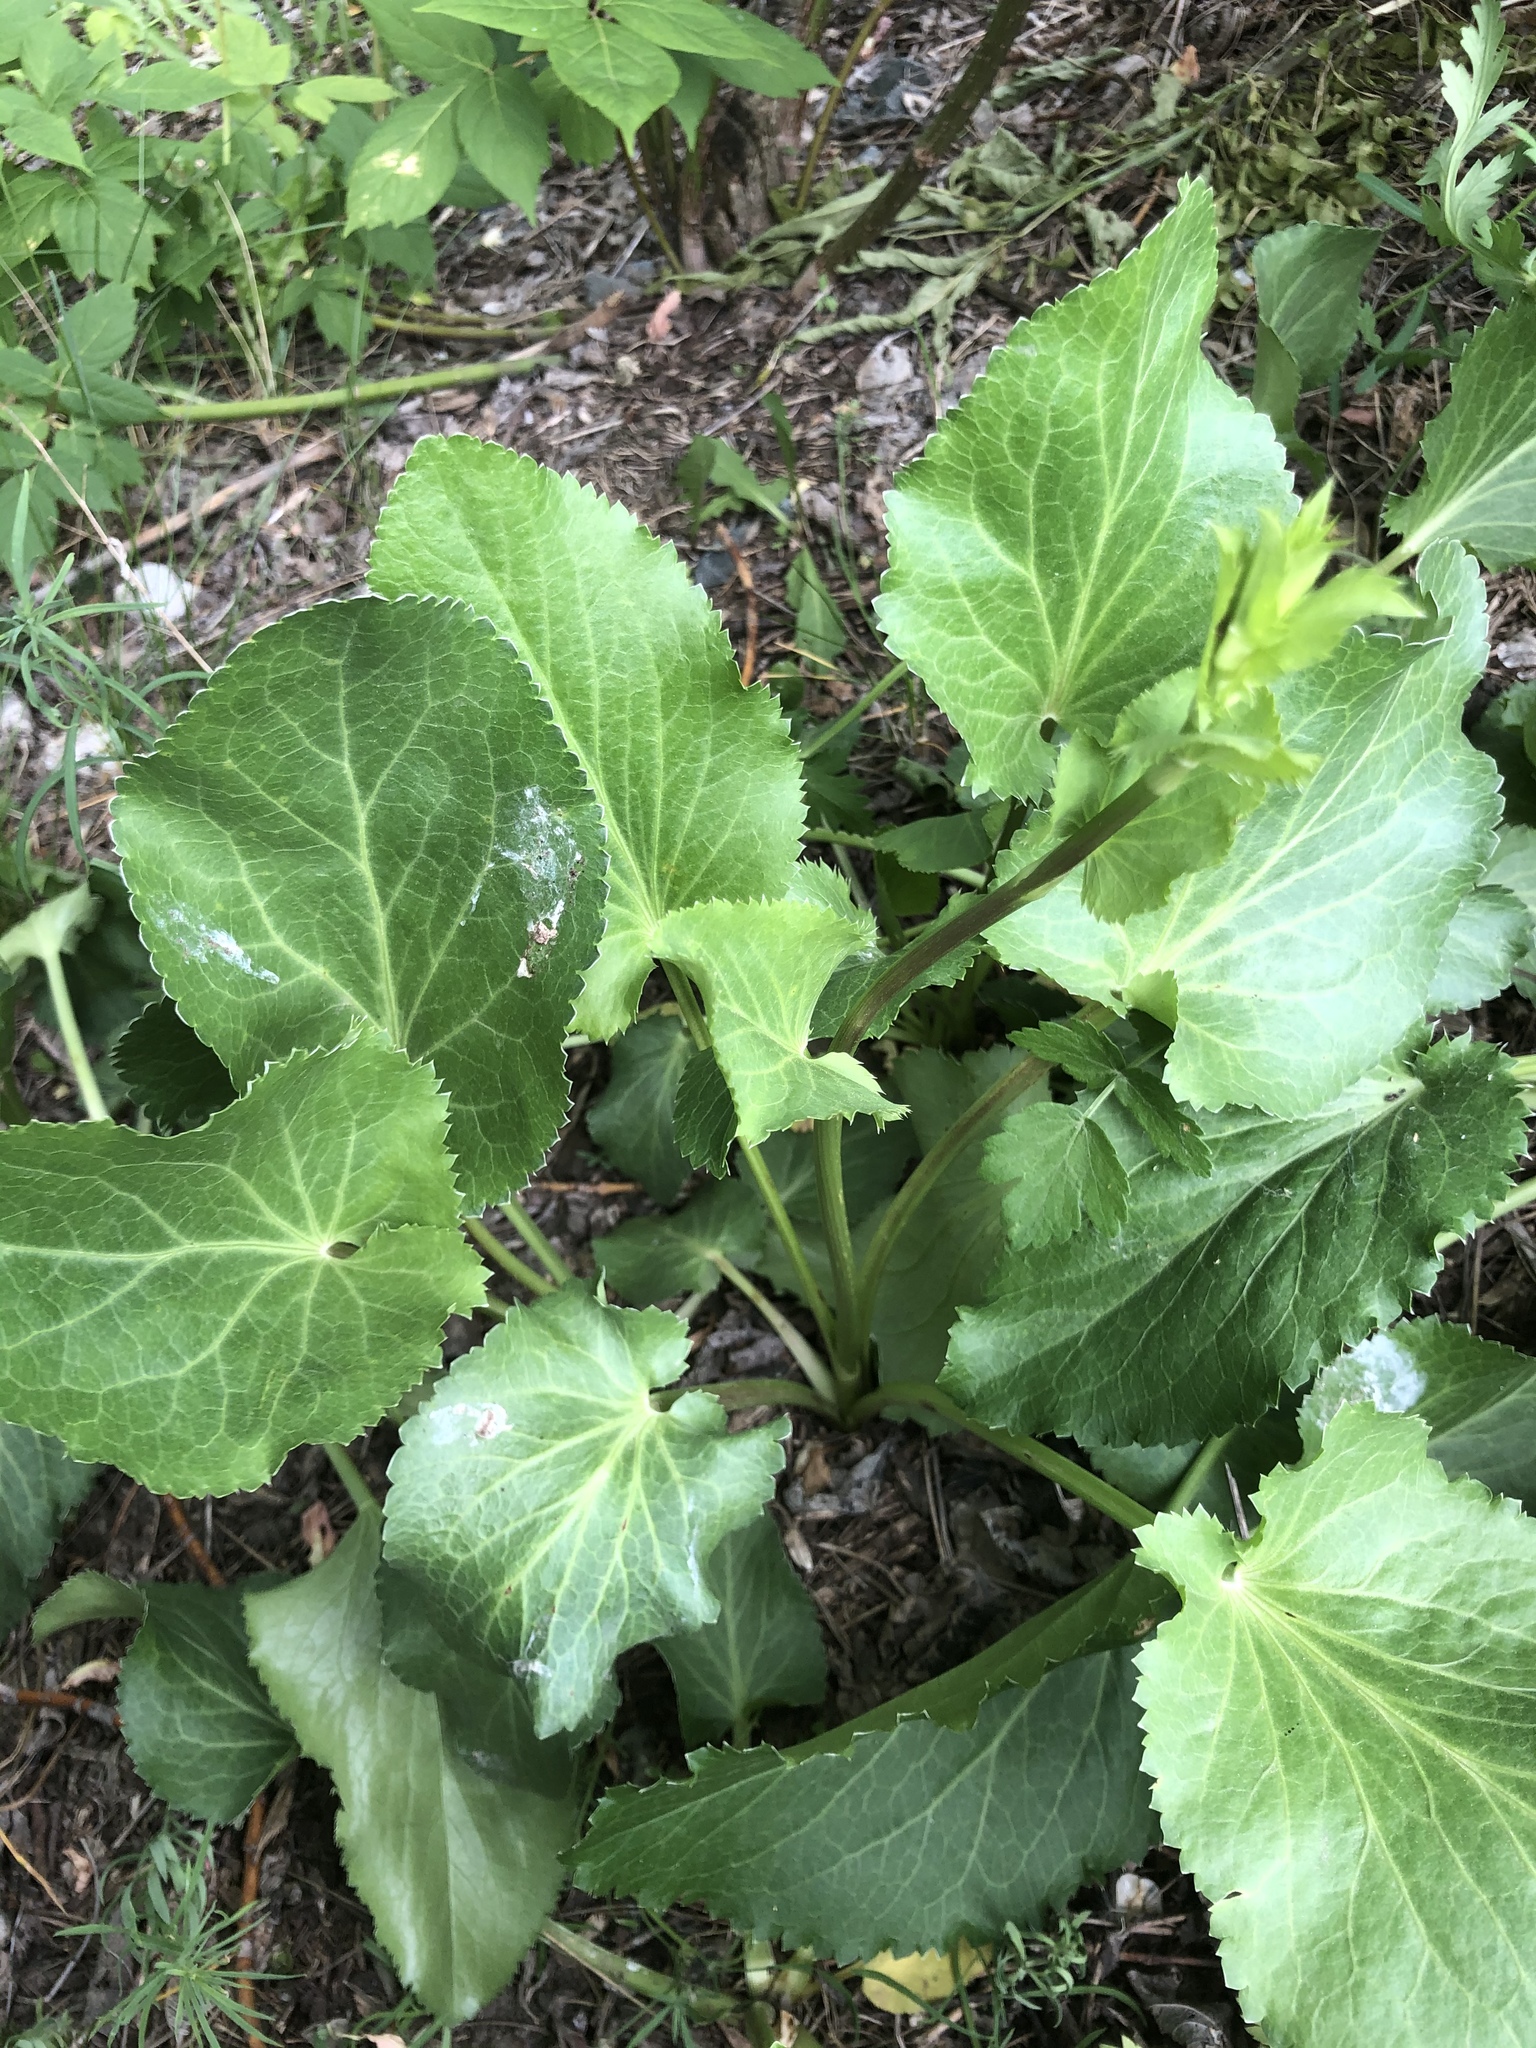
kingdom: Plantae
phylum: Tracheophyta
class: Magnoliopsida
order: Apiales
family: Apiaceae
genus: Eryngium
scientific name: Eryngium planum
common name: Blue eryngo
